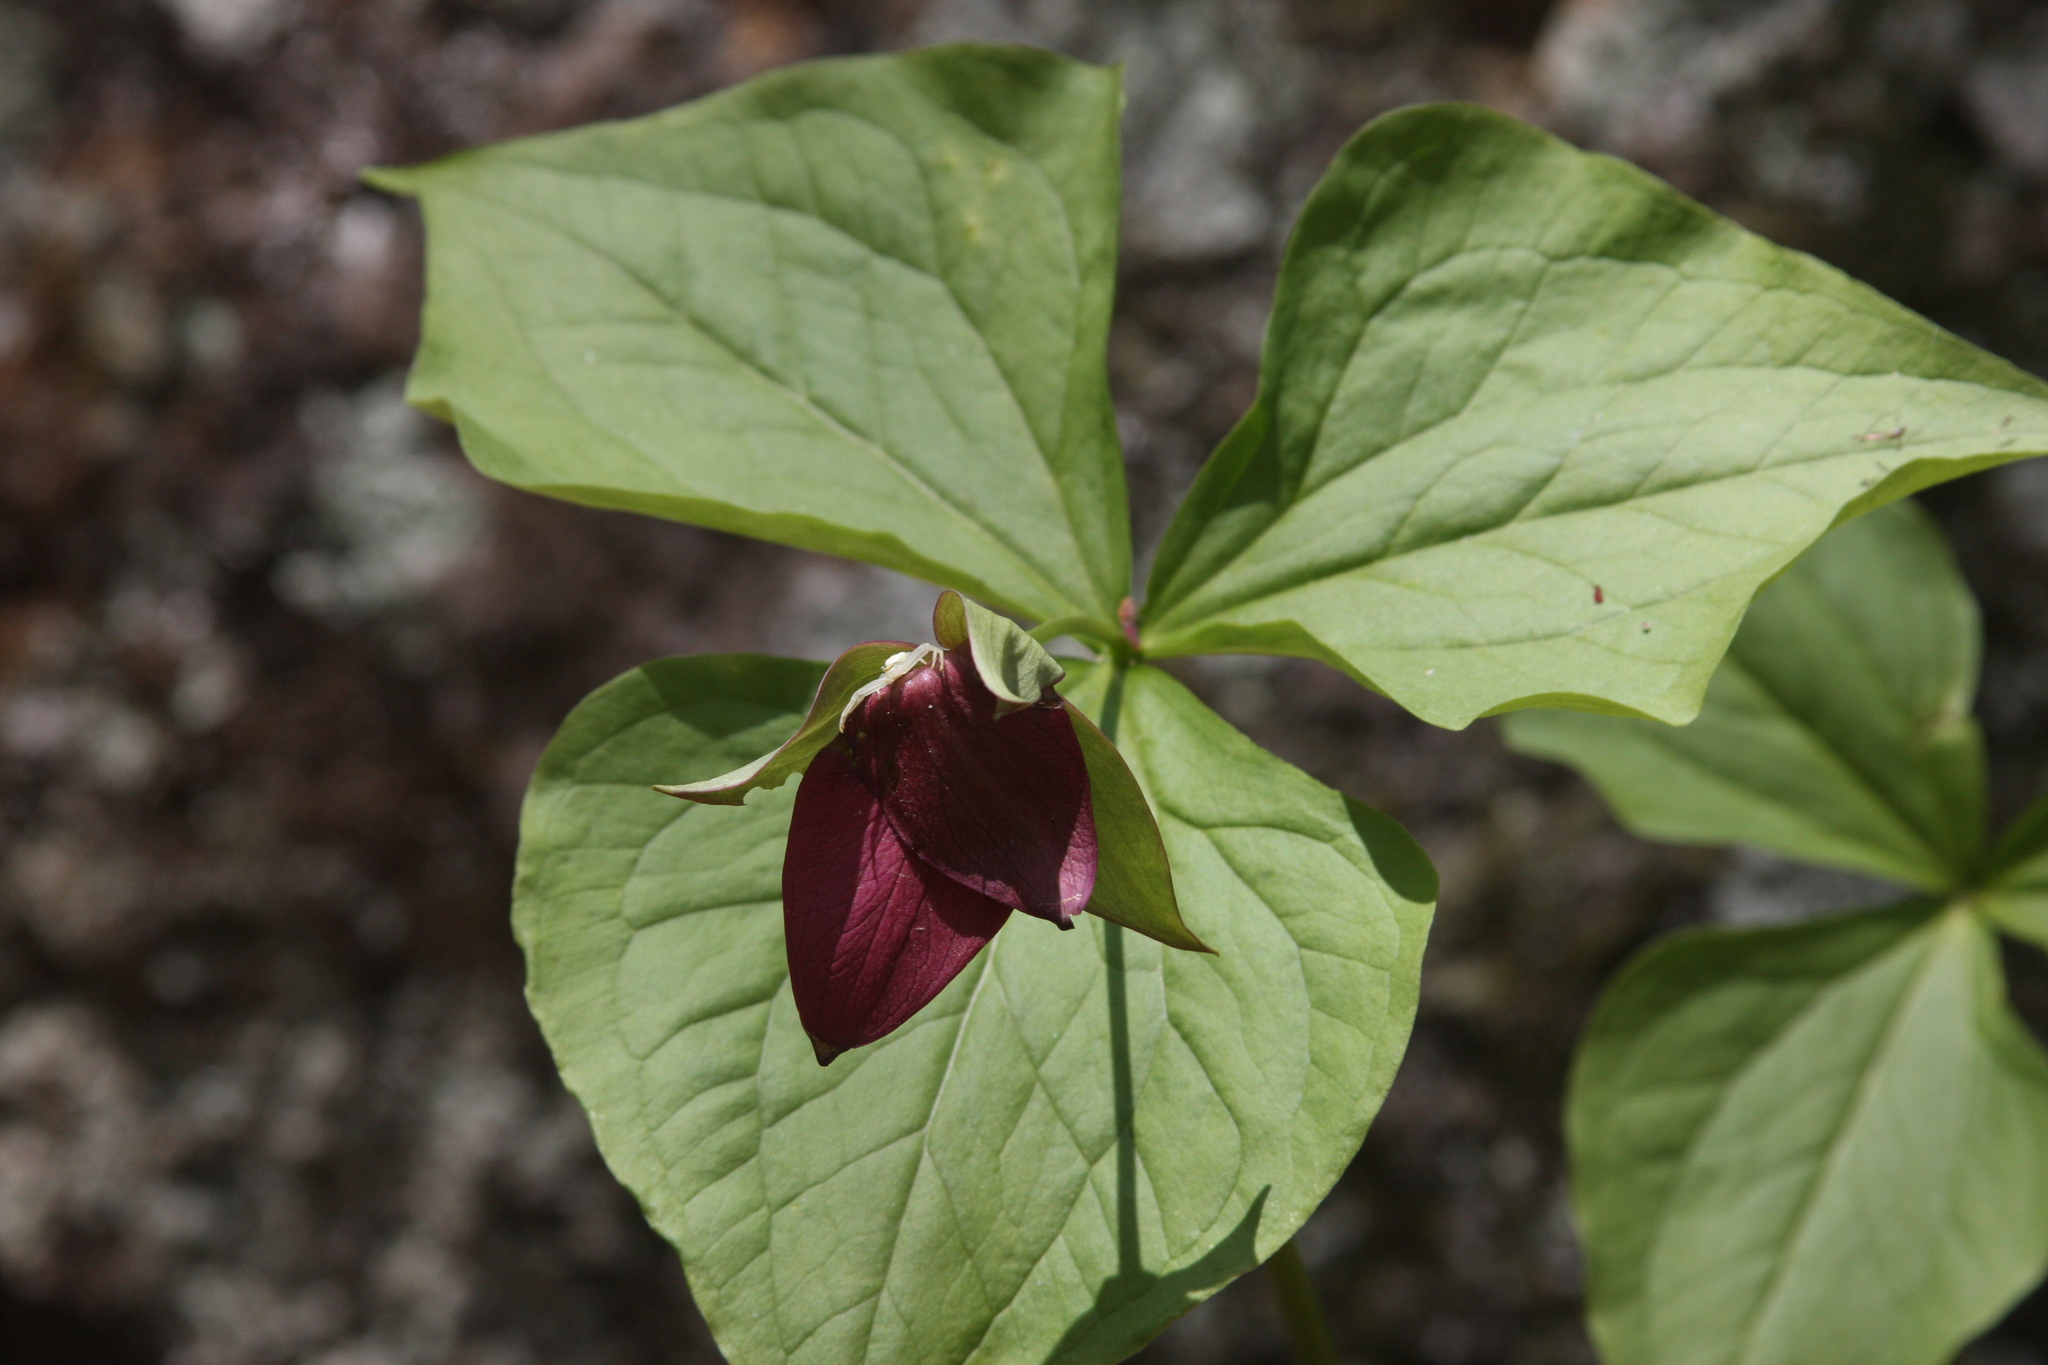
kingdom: Plantae
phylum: Tracheophyta
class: Liliopsida
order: Liliales
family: Melanthiaceae
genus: Trillium
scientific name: Trillium erectum
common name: Purple trillium
